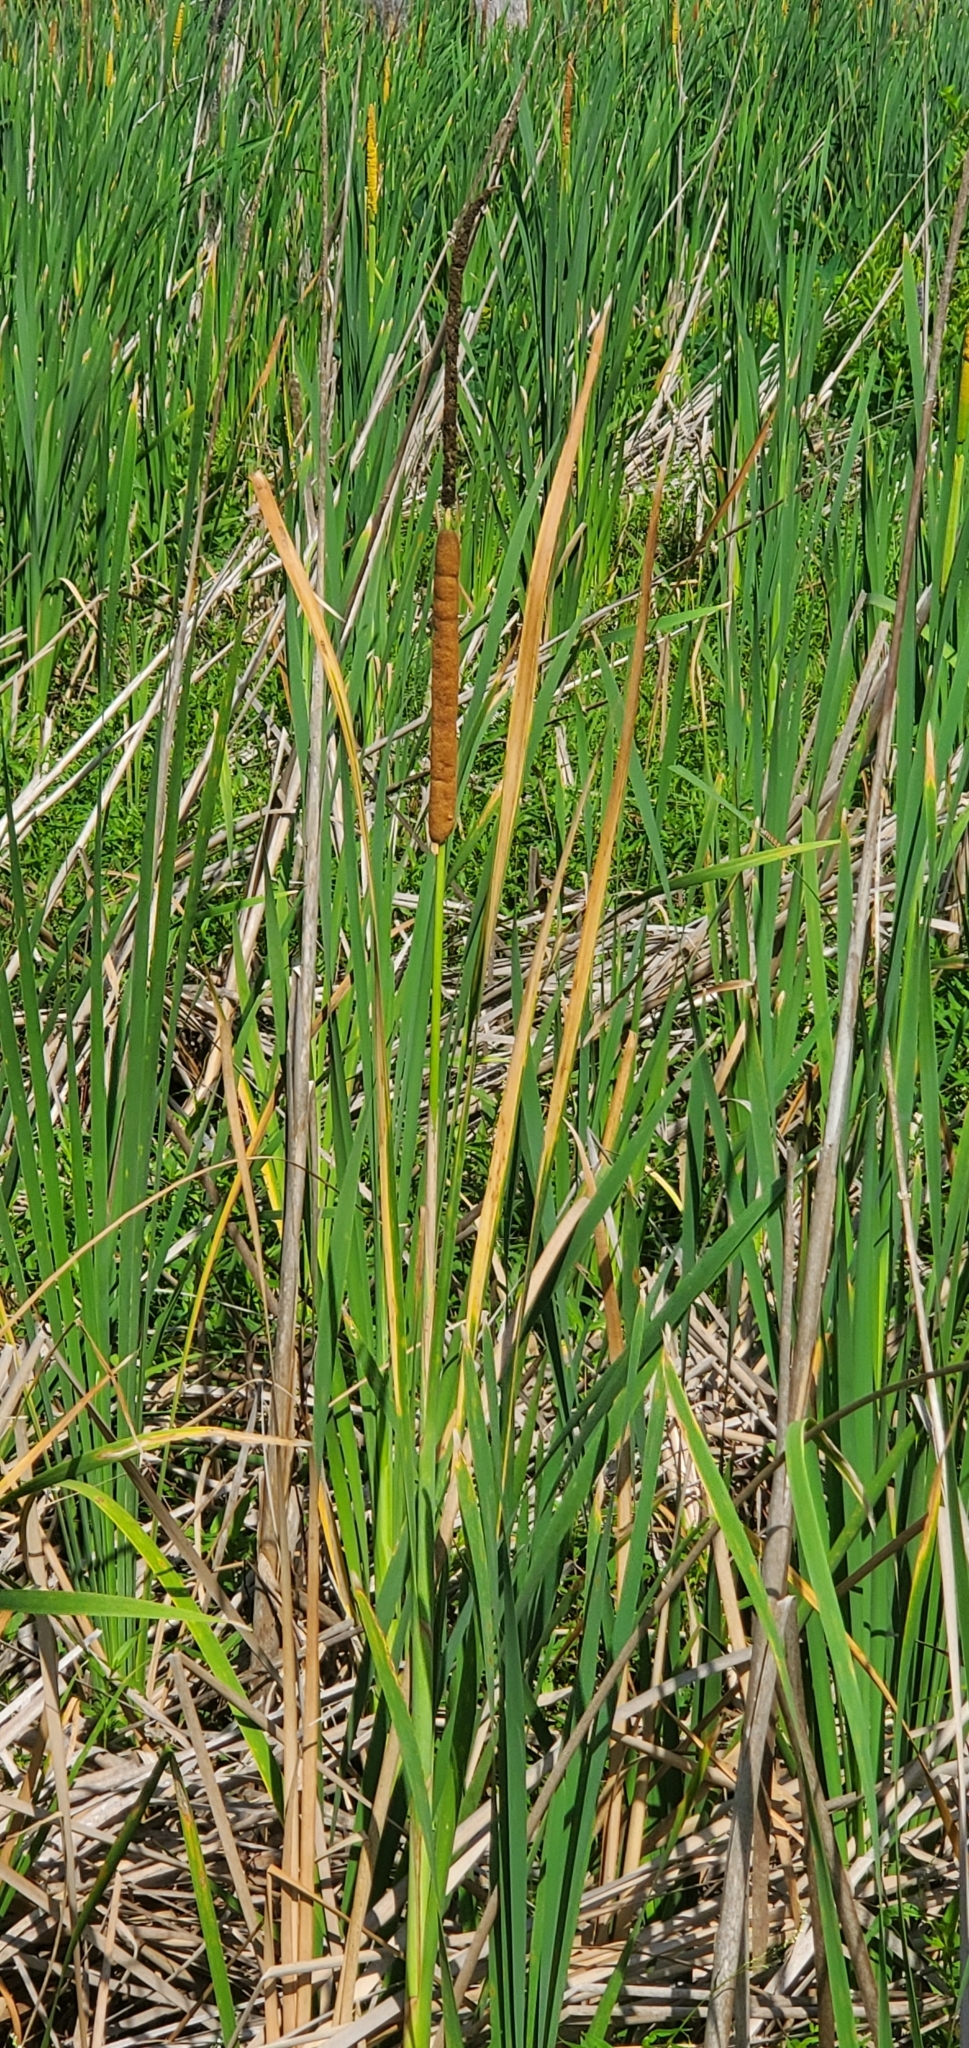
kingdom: Plantae
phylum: Tracheophyta
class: Liliopsida
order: Poales
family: Typhaceae
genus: Typha
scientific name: Typha domingensis
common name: Southern cattail
